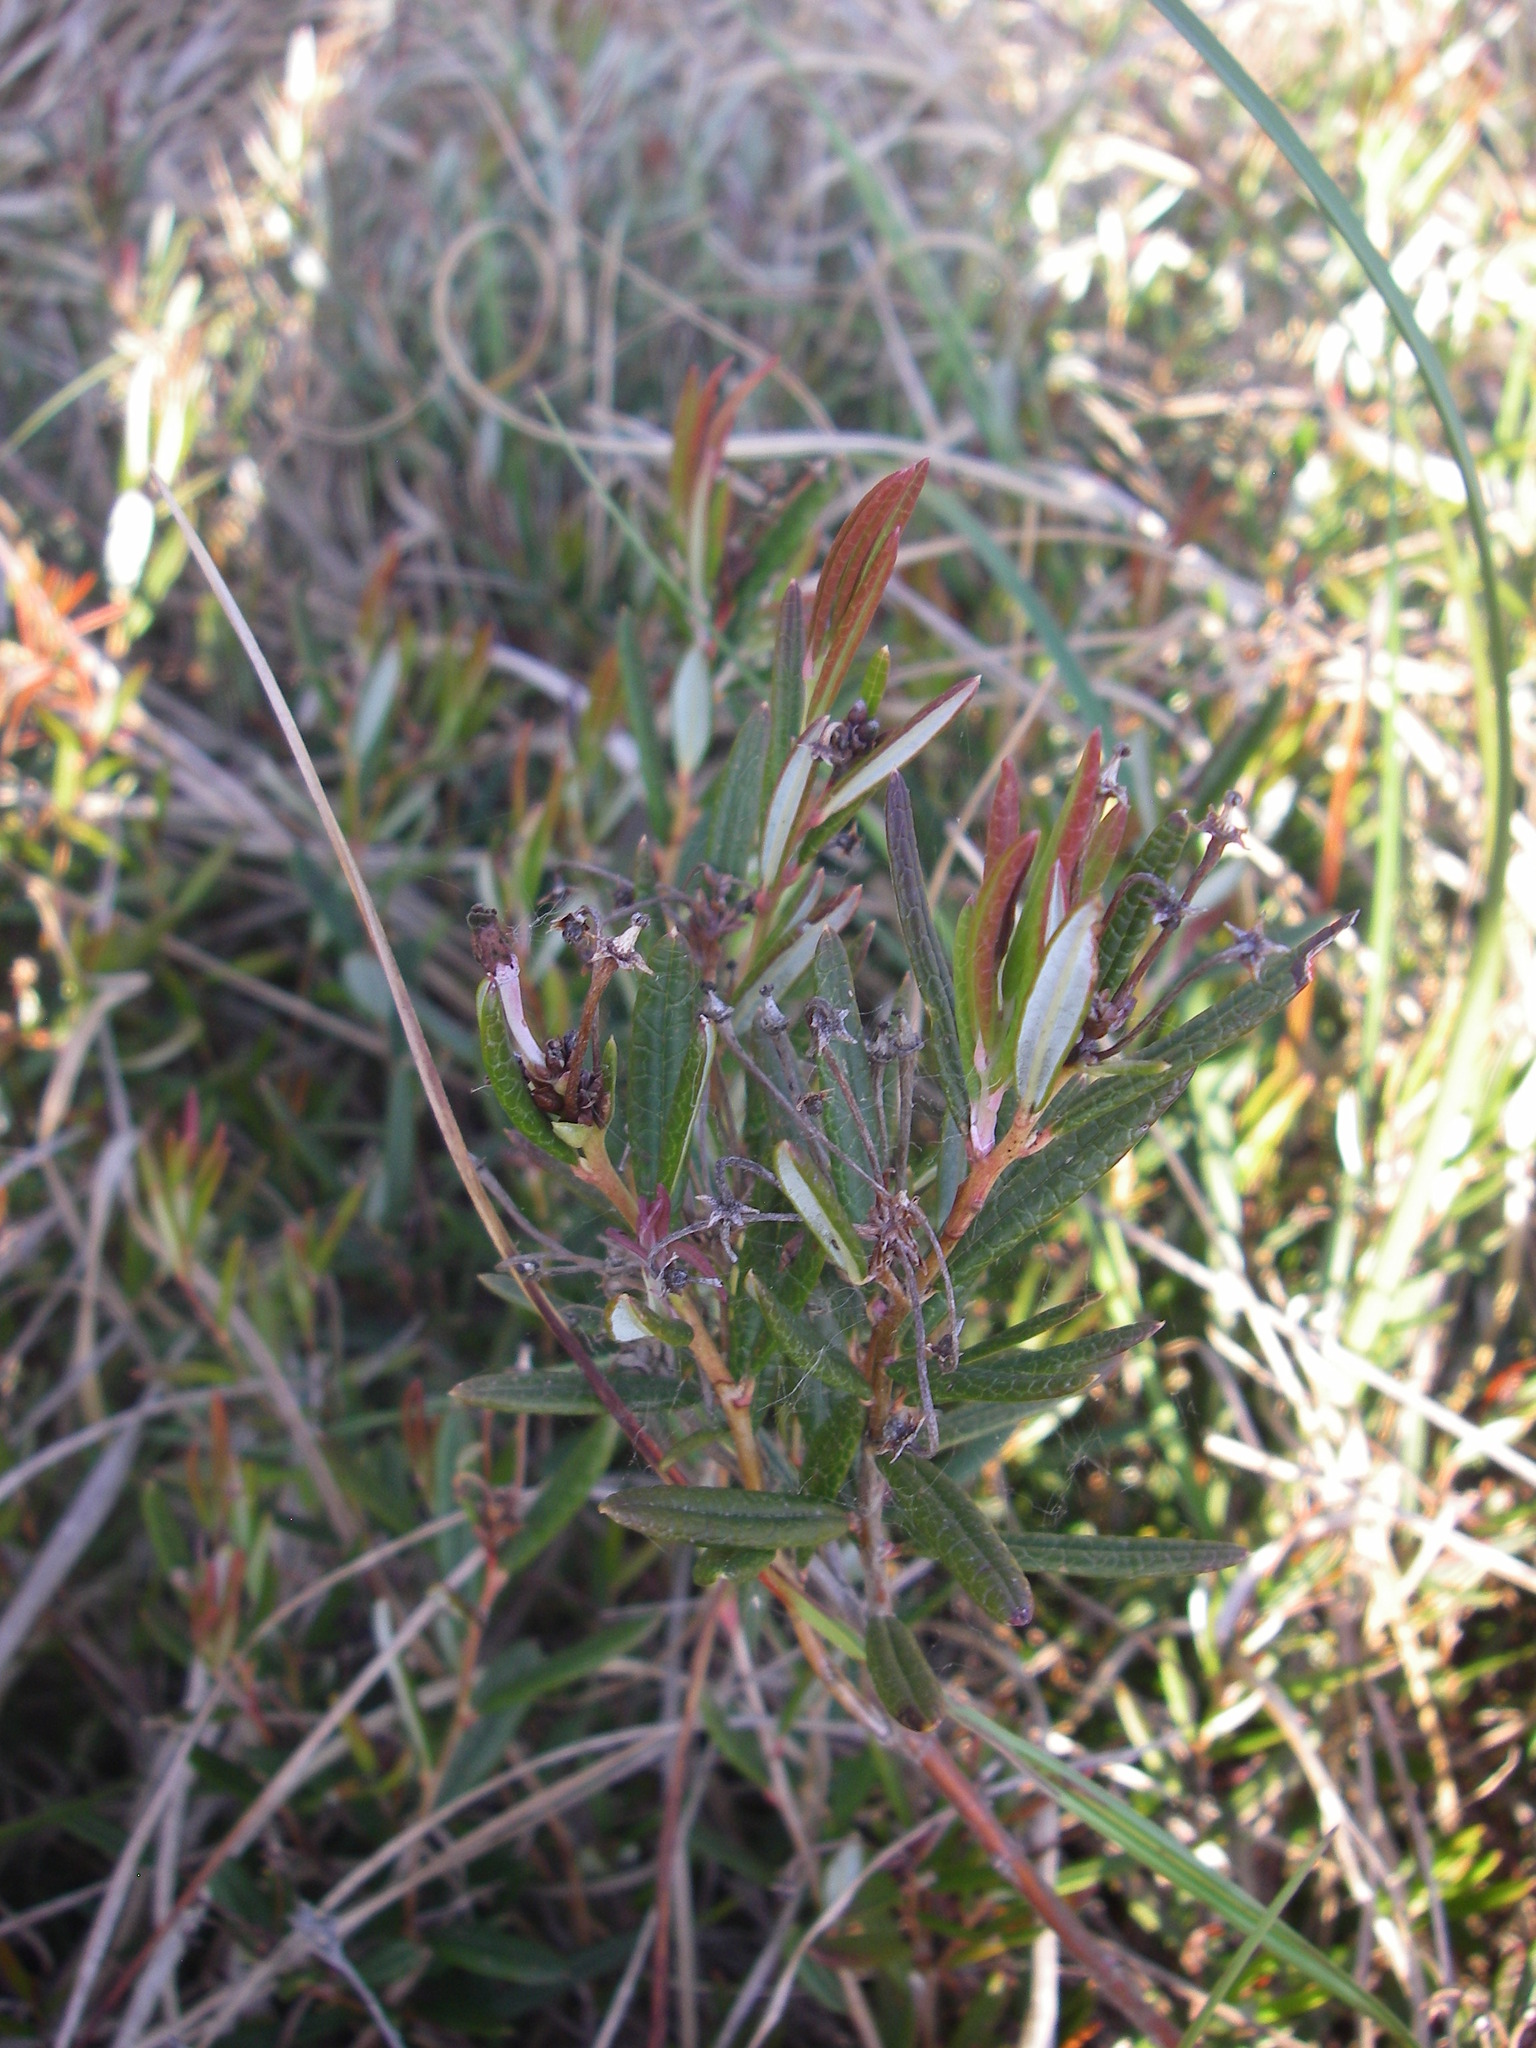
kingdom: Plantae
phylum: Tracheophyta
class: Magnoliopsida
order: Ericales
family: Ericaceae
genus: Andromeda
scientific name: Andromeda polifolia
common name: Bog-rosemary
